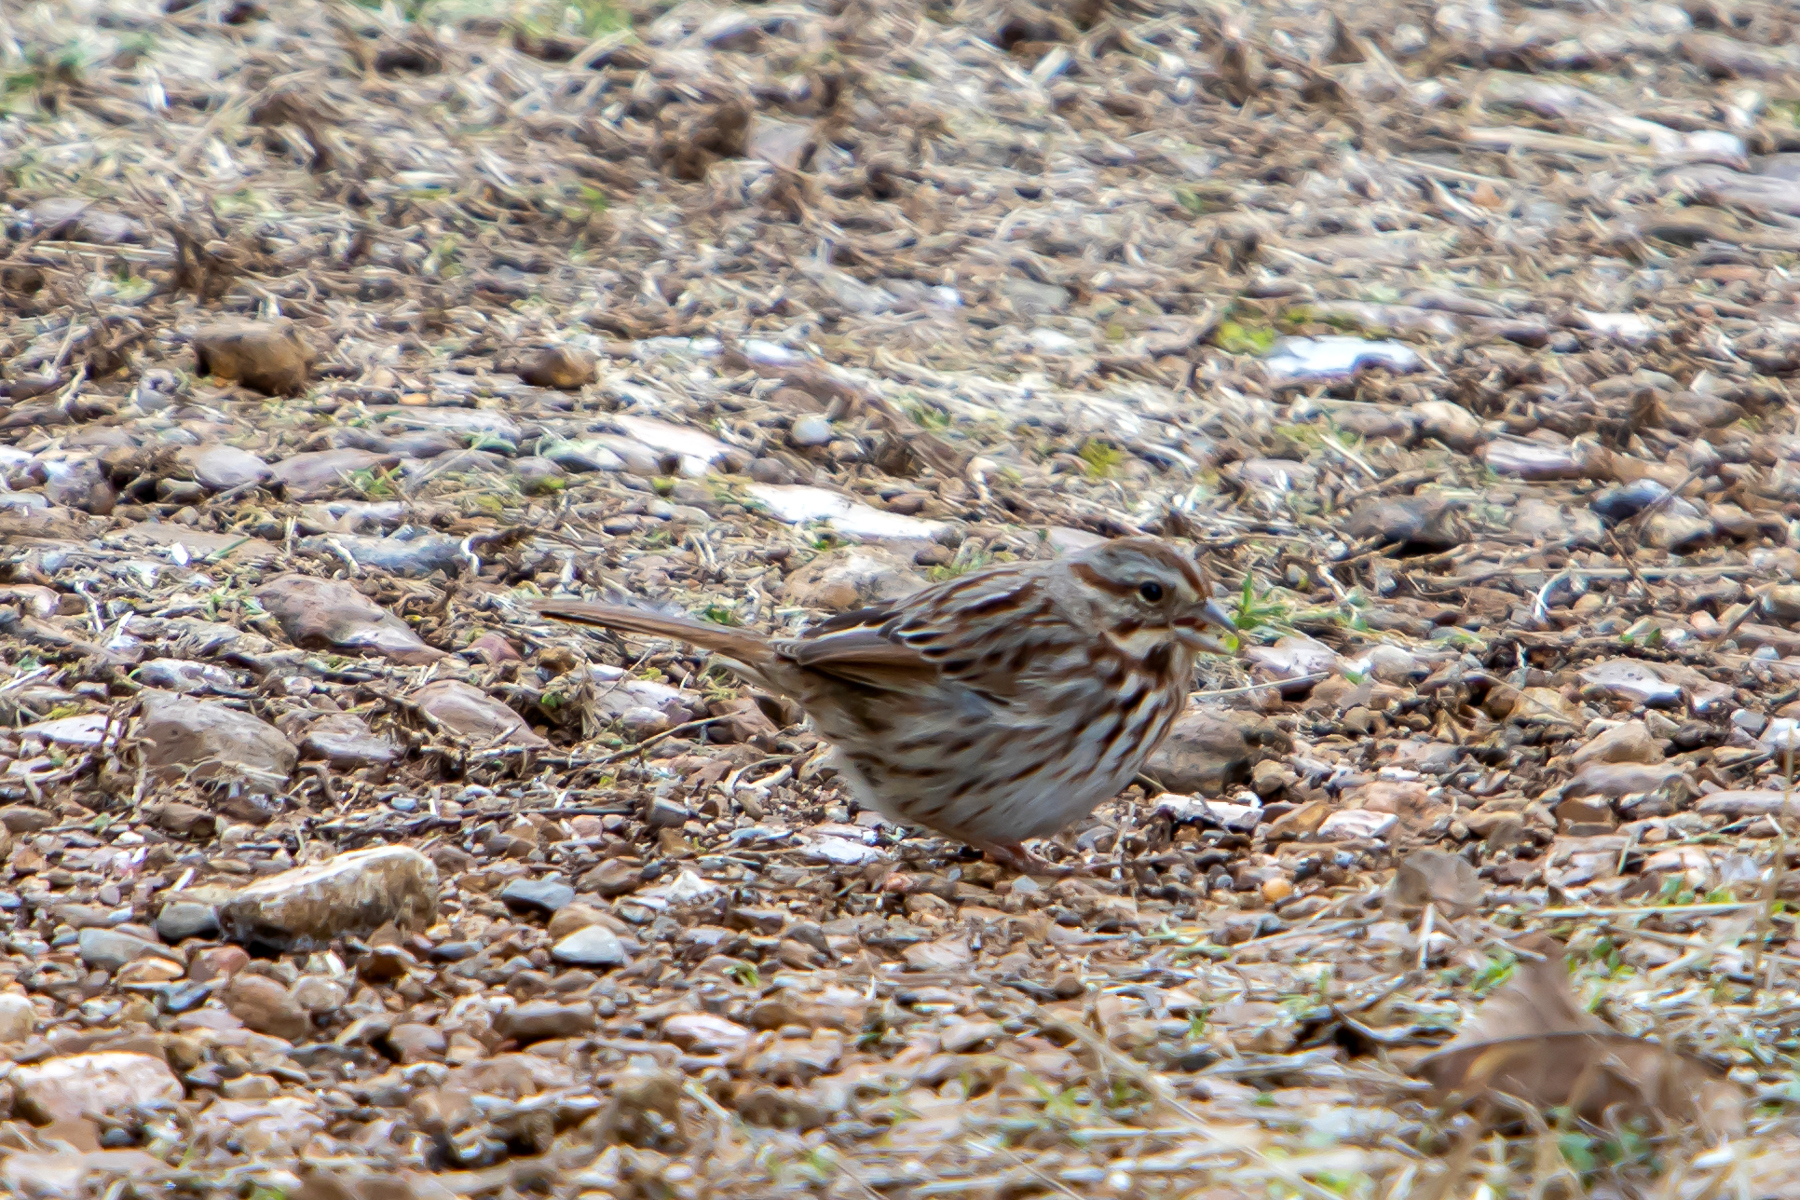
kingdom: Animalia
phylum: Chordata
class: Aves
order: Passeriformes
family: Passerellidae
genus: Melospiza
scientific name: Melospiza melodia
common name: Song sparrow
